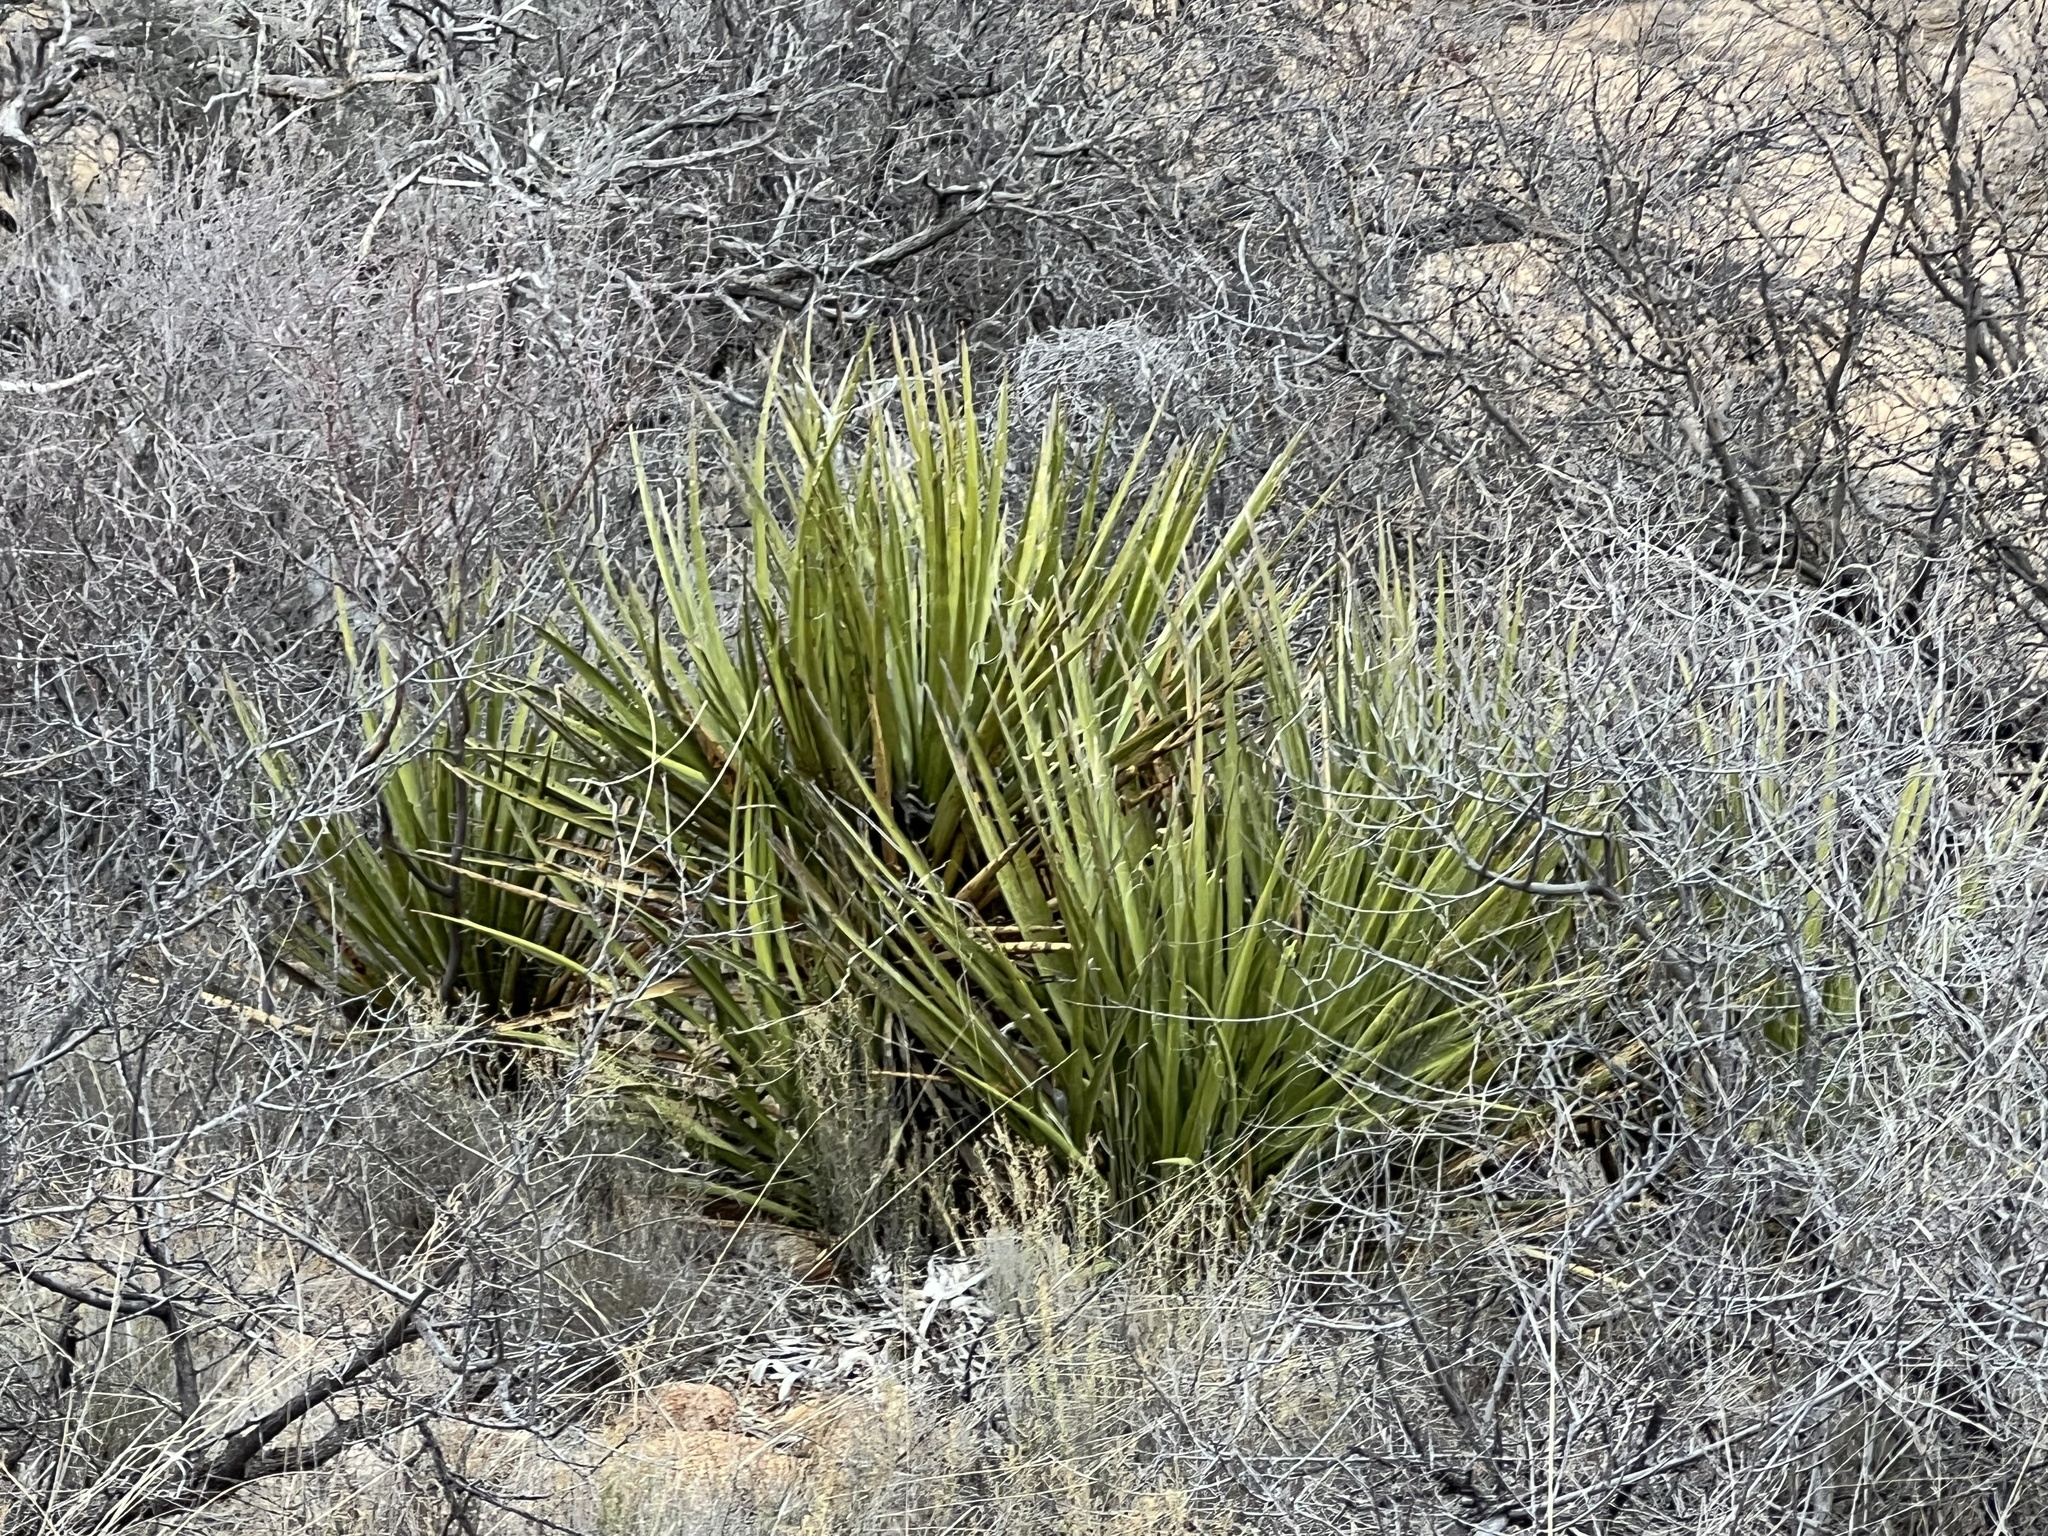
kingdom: Plantae
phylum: Tracheophyta
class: Liliopsida
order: Asparagales
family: Asparagaceae
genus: Yucca
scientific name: Yucca baccata
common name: Banana yucca
